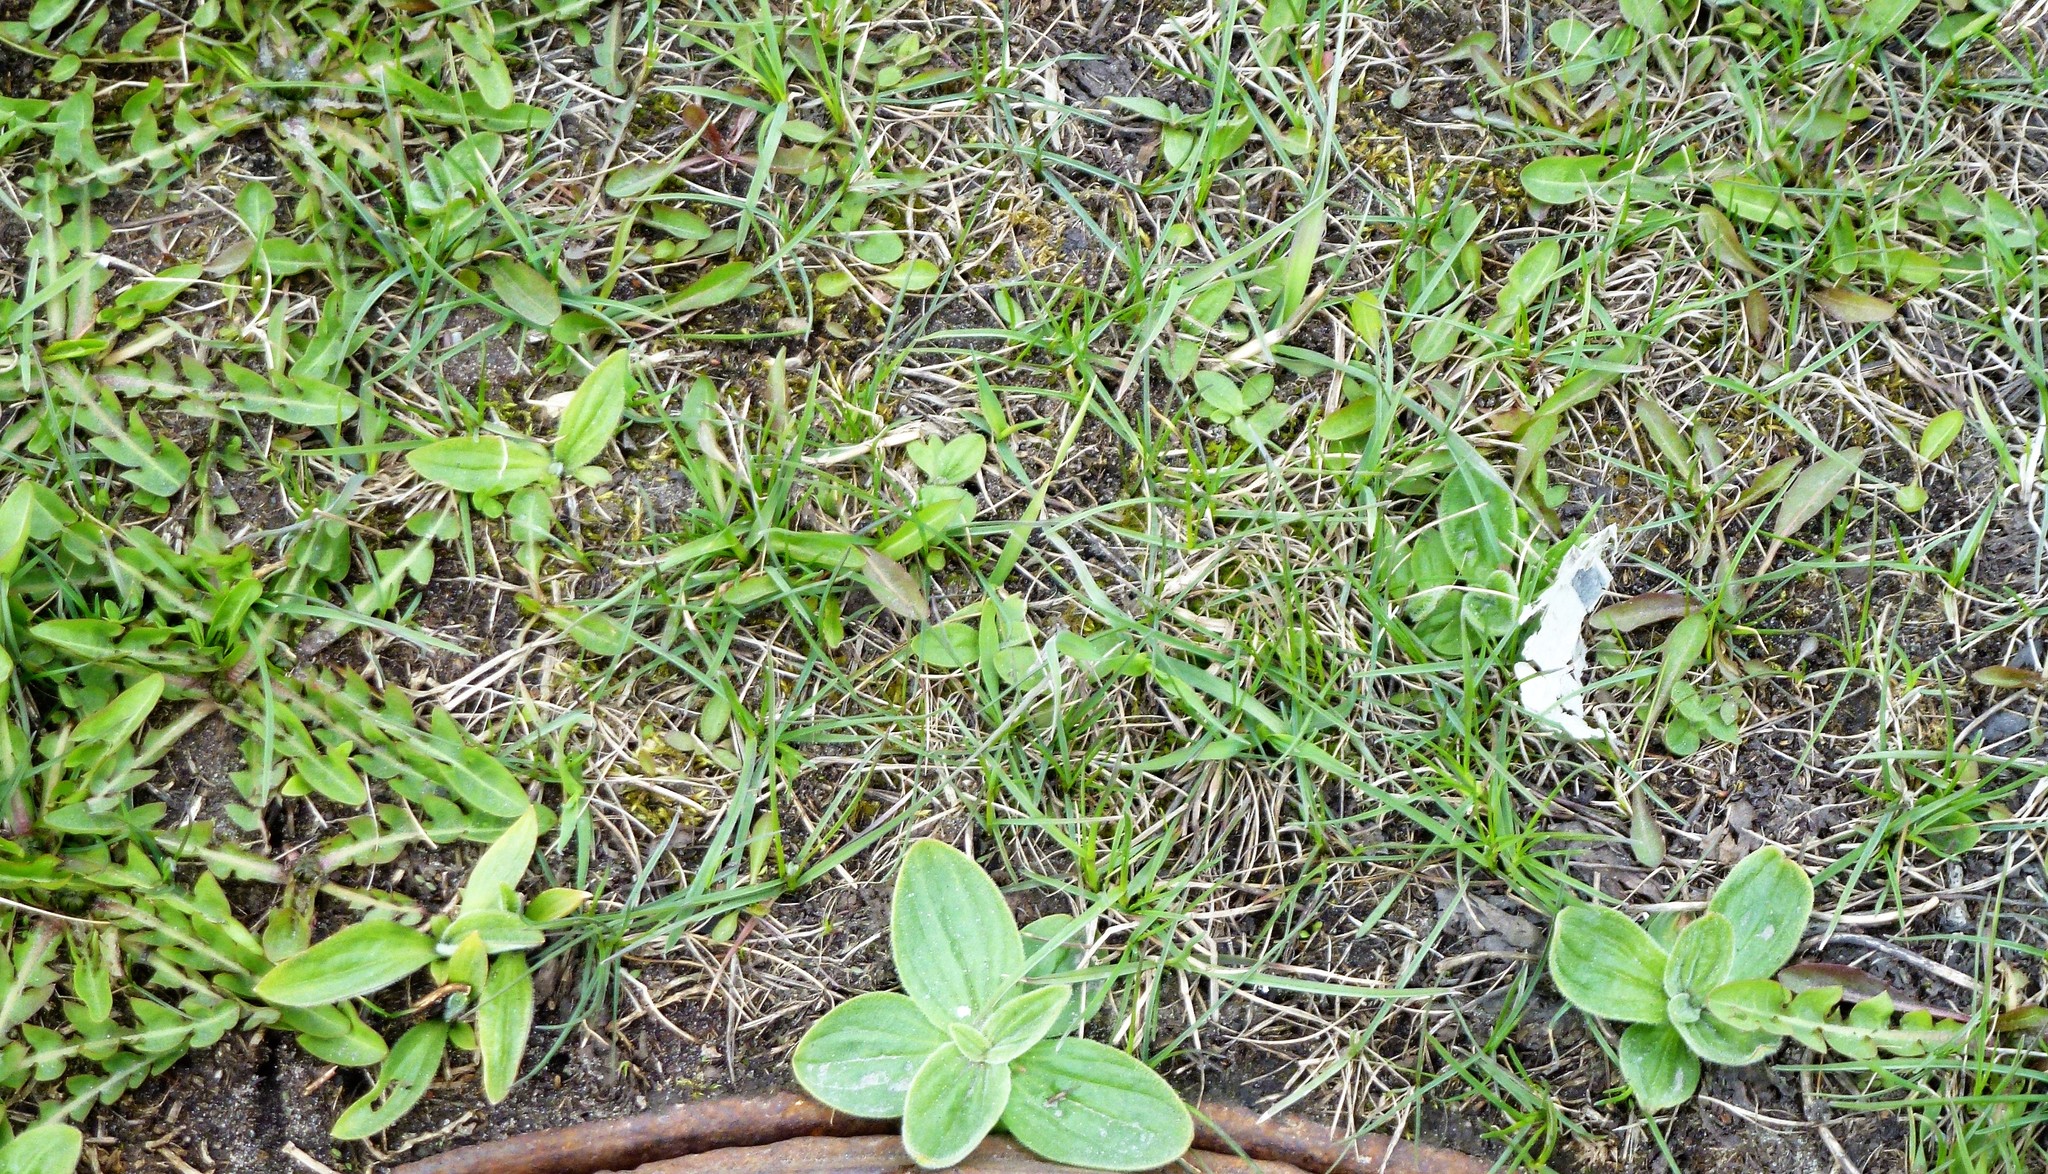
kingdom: Plantae
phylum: Tracheophyta
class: Magnoliopsida
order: Lamiales
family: Plantaginaceae
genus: Plantago
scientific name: Plantago media
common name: Hoary plantain
